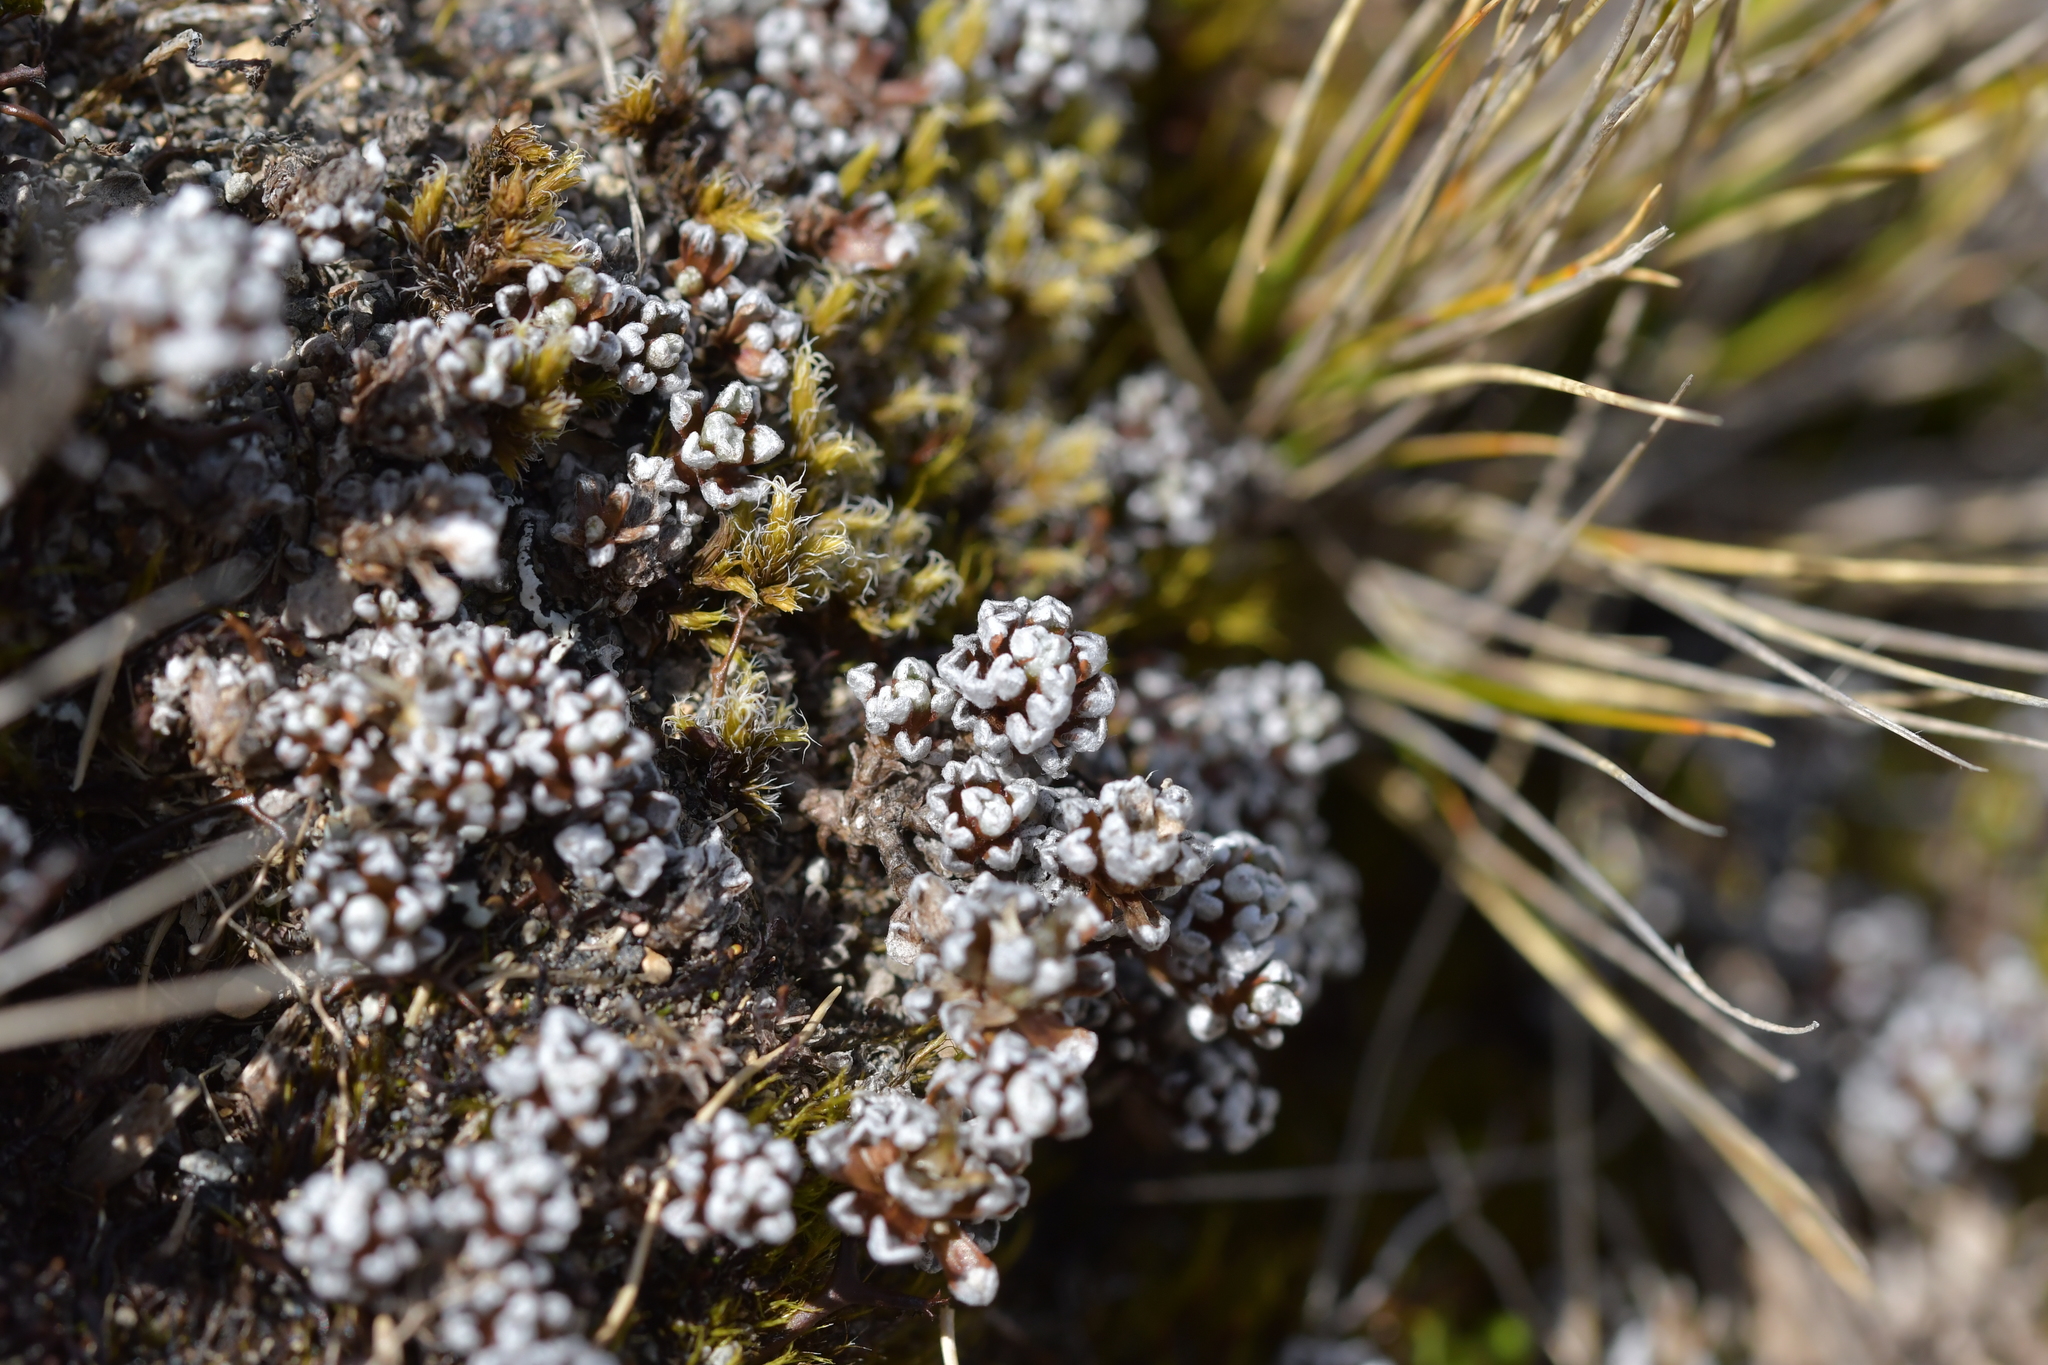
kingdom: Plantae
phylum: Tracheophyta
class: Magnoliopsida
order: Asterales
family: Asteraceae
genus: Raoulia
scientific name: Raoulia albosericea
